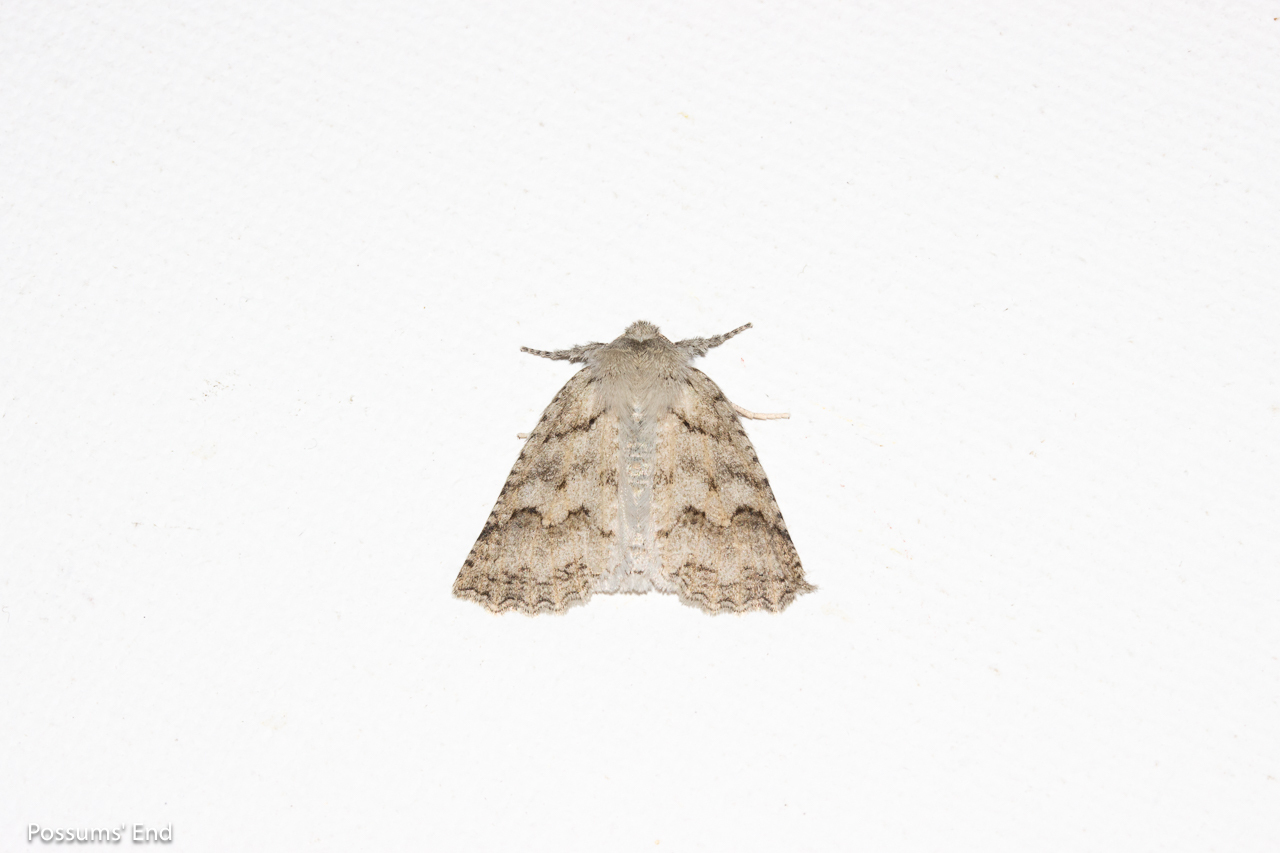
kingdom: Animalia
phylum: Arthropoda
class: Insecta
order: Lepidoptera
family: Geometridae
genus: Declana
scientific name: Declana niveata
